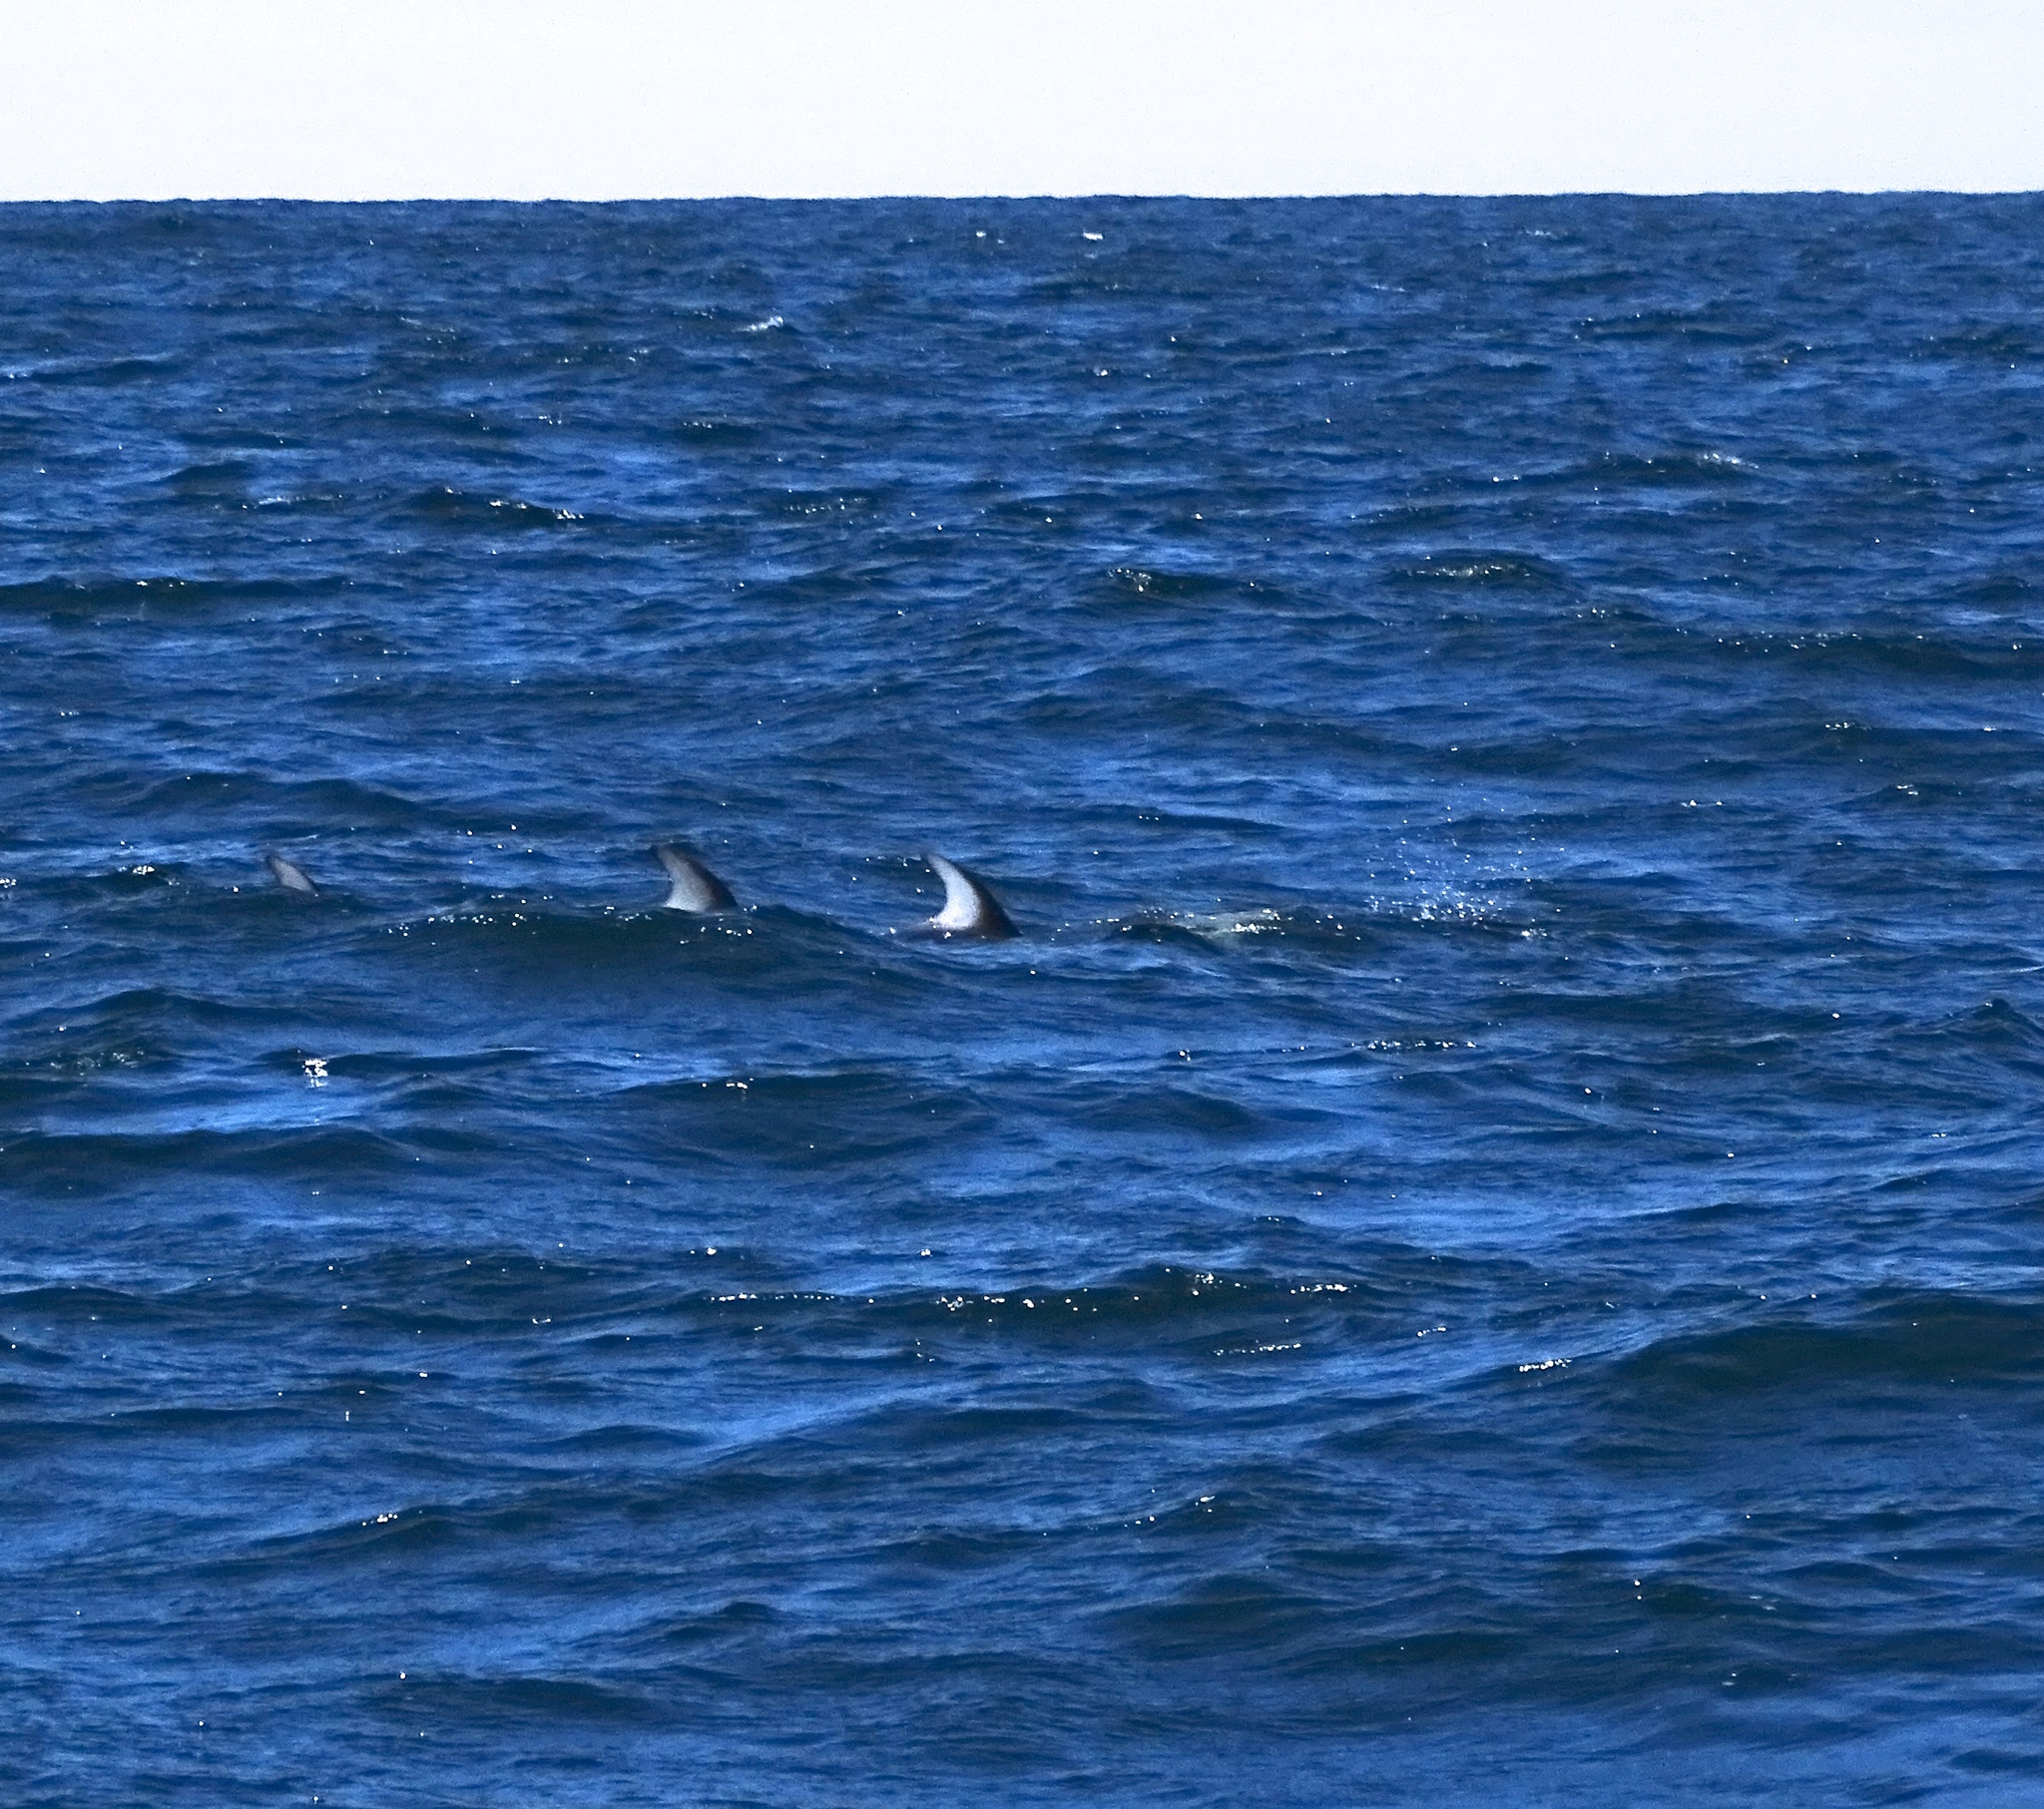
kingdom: Animalia
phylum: Chordata
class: Mammalia
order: Cetacea
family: Delphinidae
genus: Lagenorhynchus
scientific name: Lagenorhynchus obliquidens
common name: Pacific white-sided dolphin
